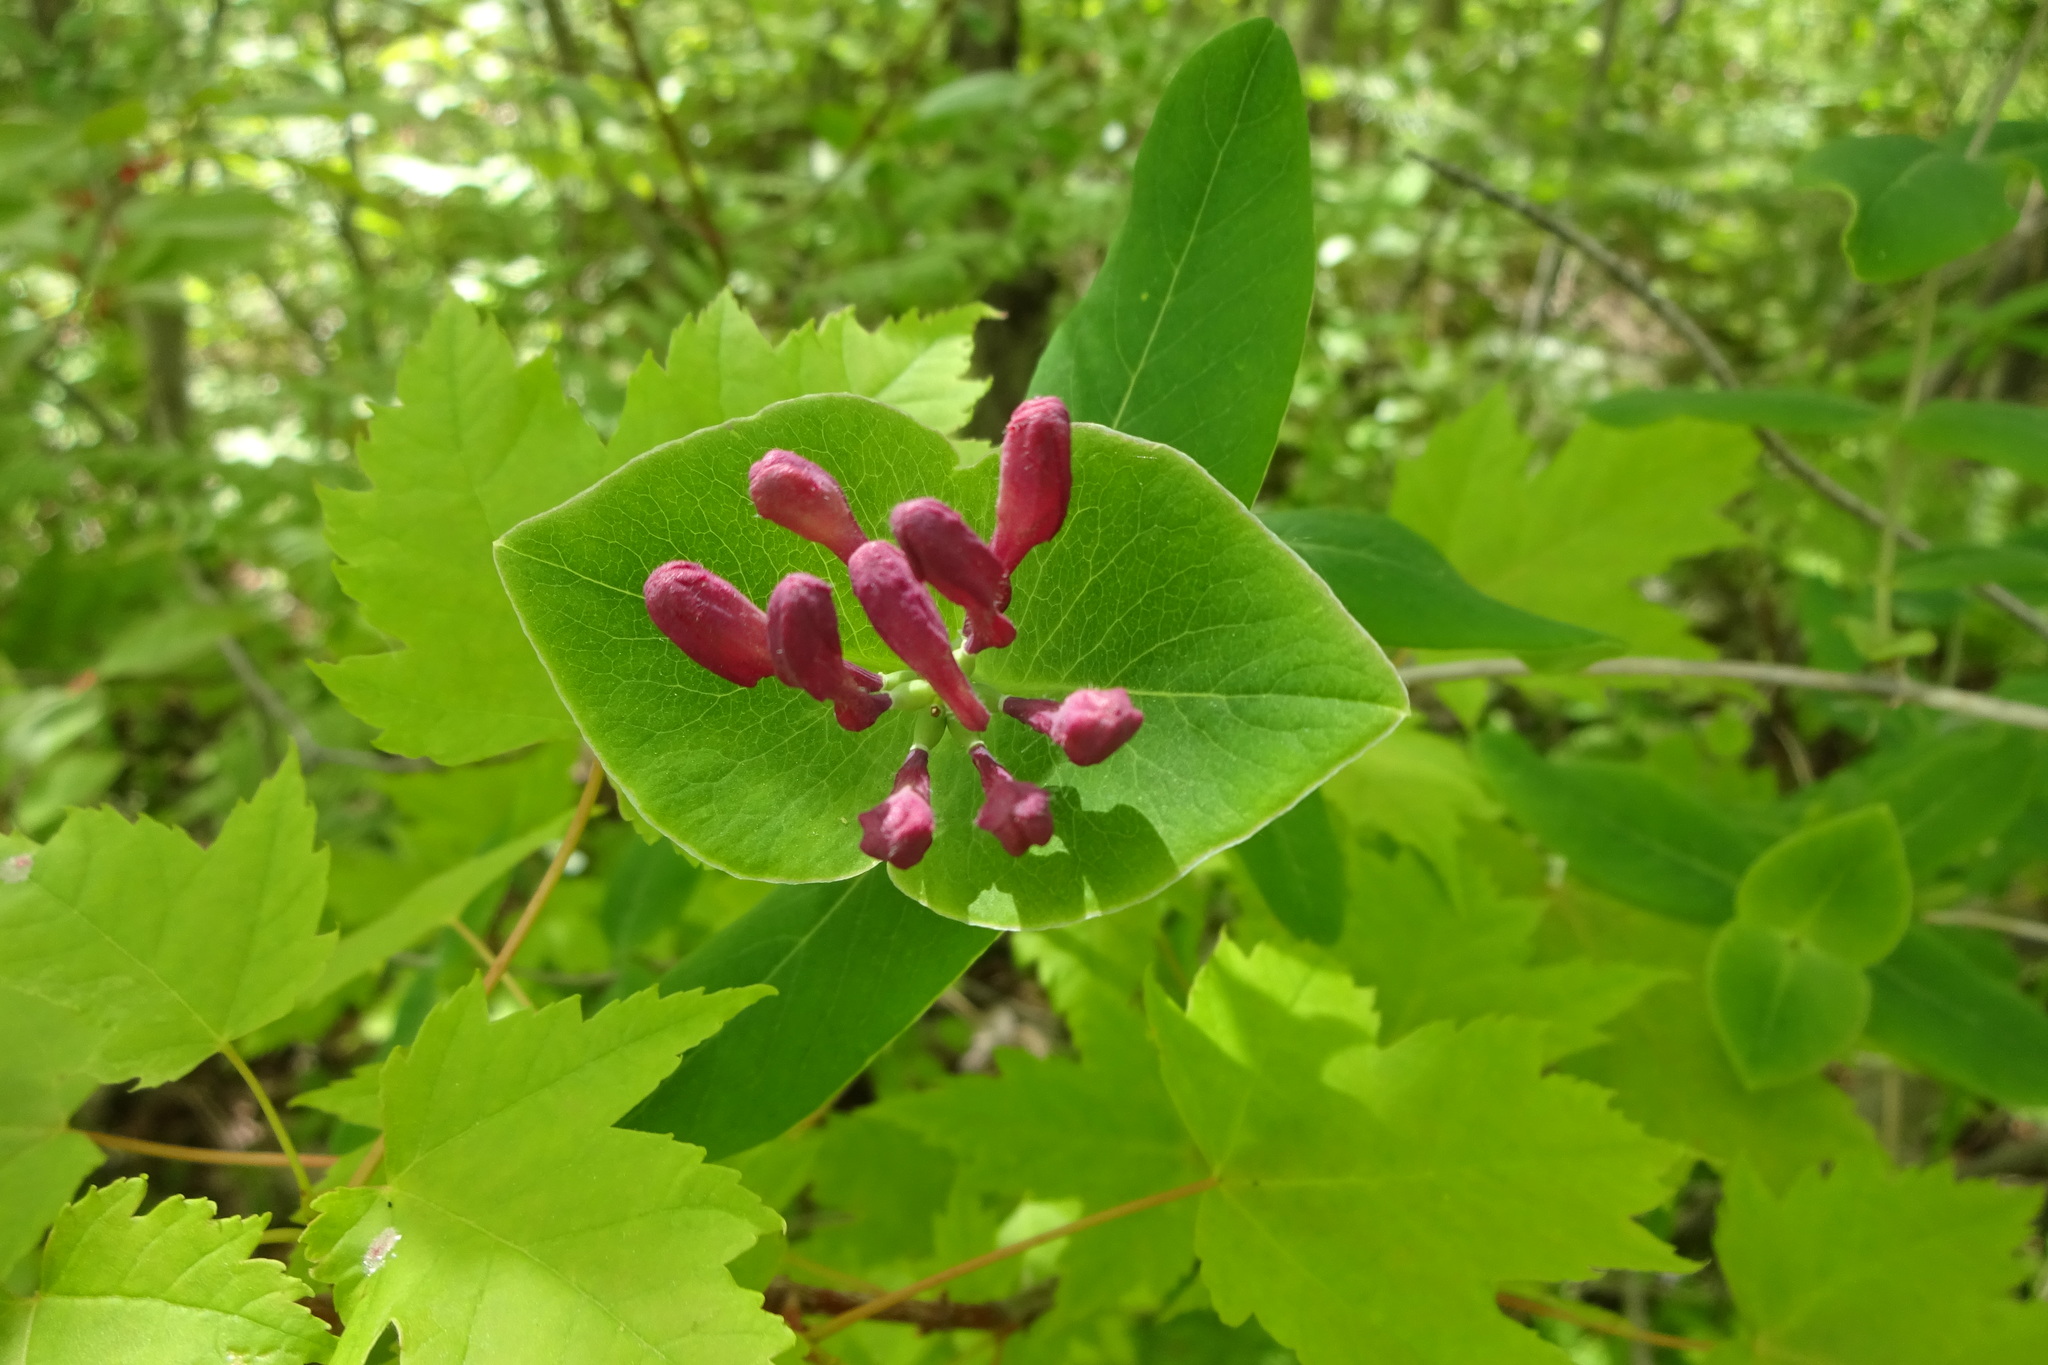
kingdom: Plantae
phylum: Tracheophyta
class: Magnoliopsida
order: Dipsacales
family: Caprifoliaceae
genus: Lonicera
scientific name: Lonicera dioica
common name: Limber honeysuckle
